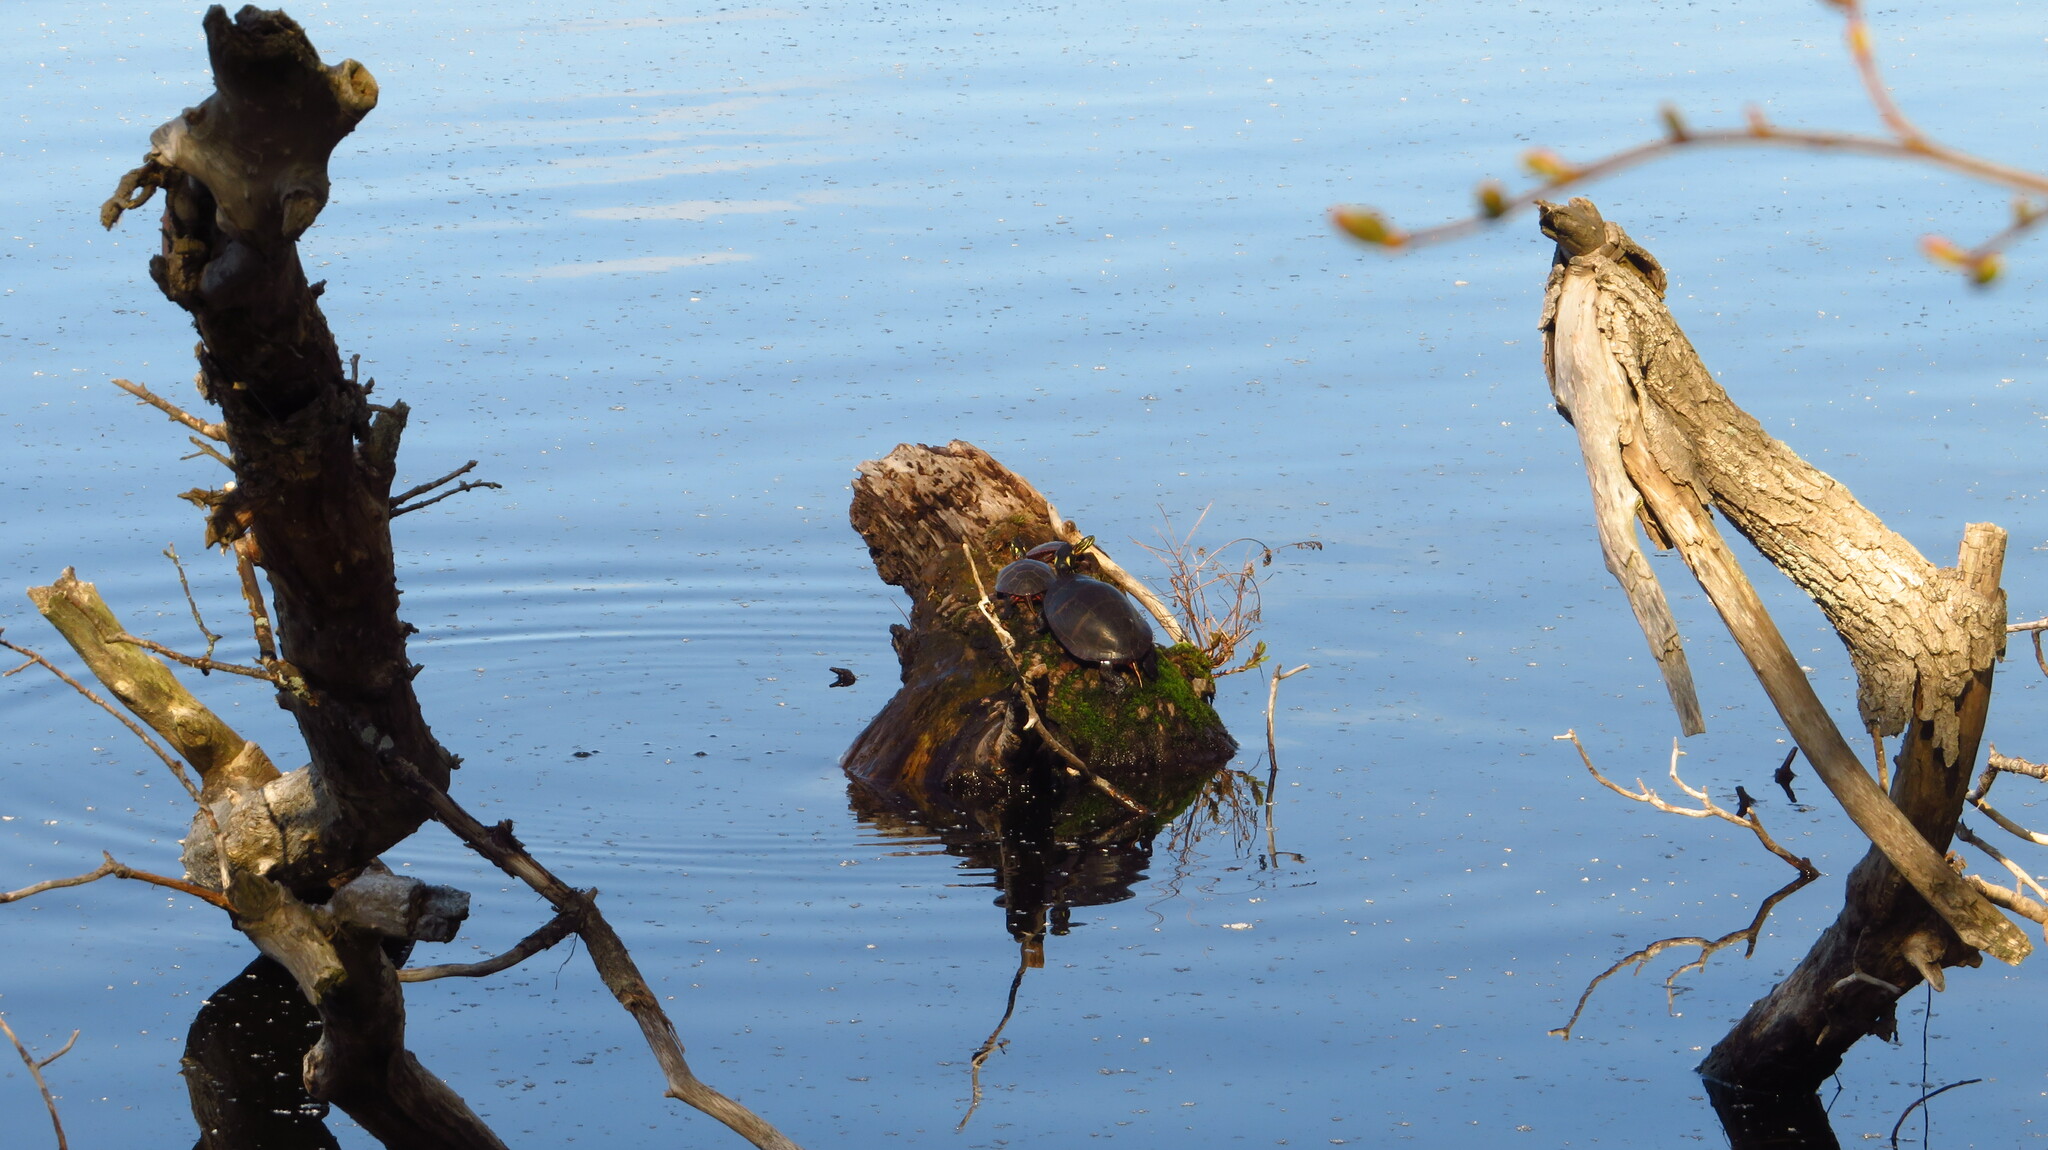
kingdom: Animalia
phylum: Chordata
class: Testudines
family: Emydidae
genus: Chrysemys
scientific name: Chrysemys picta
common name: Painted turtle
